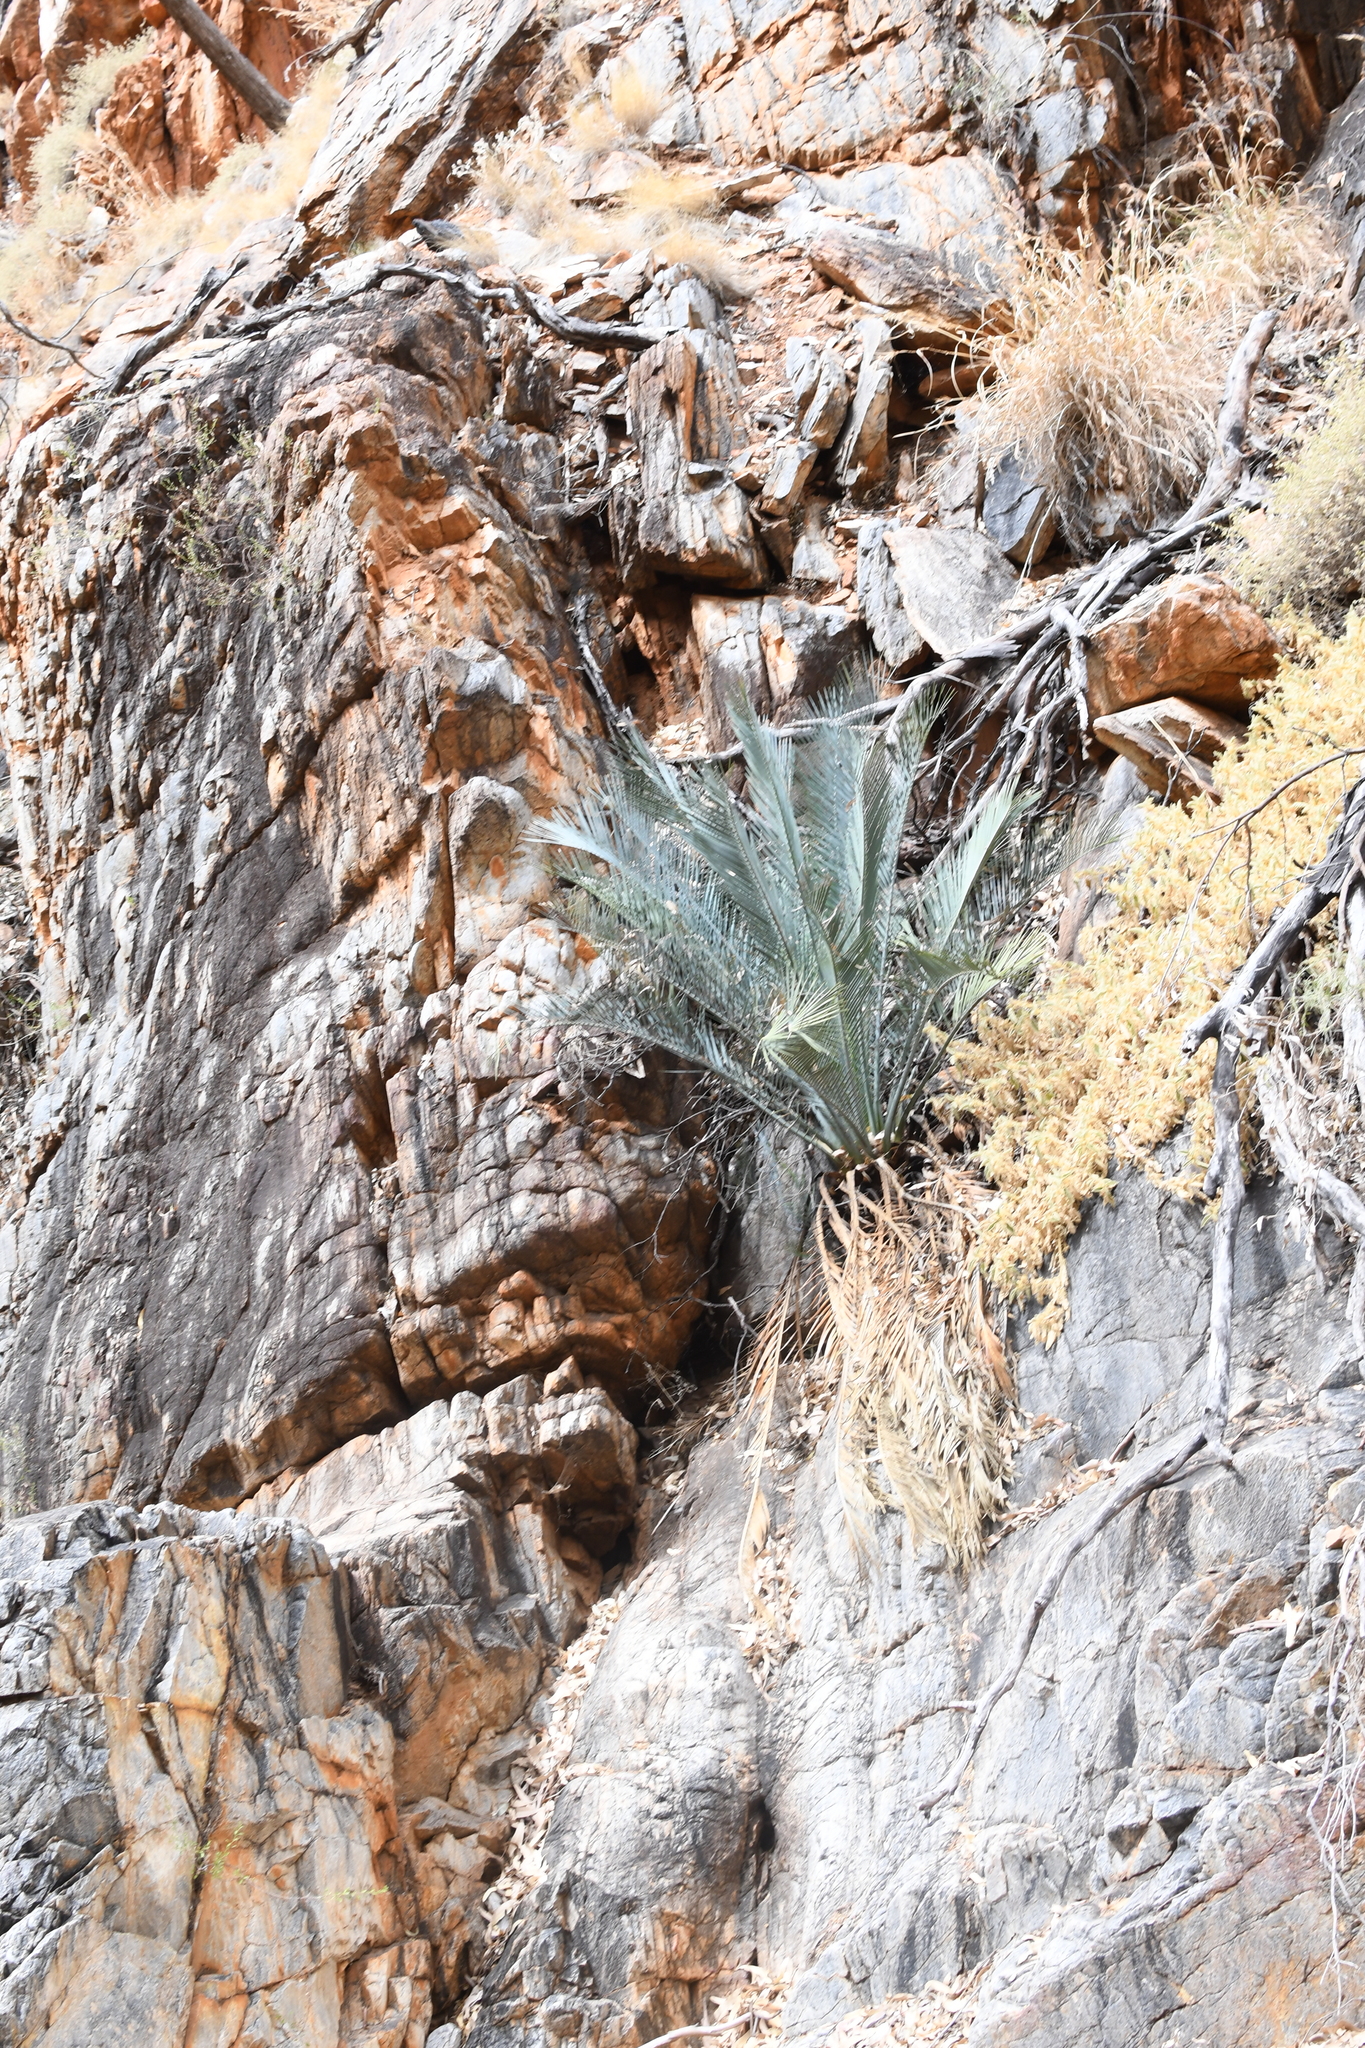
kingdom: Plantae
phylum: Tracheophyta
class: Cycadopsida
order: Cycadales
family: Zamiaceae
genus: Macrozamia
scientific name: Macrozamia macdonnellii
